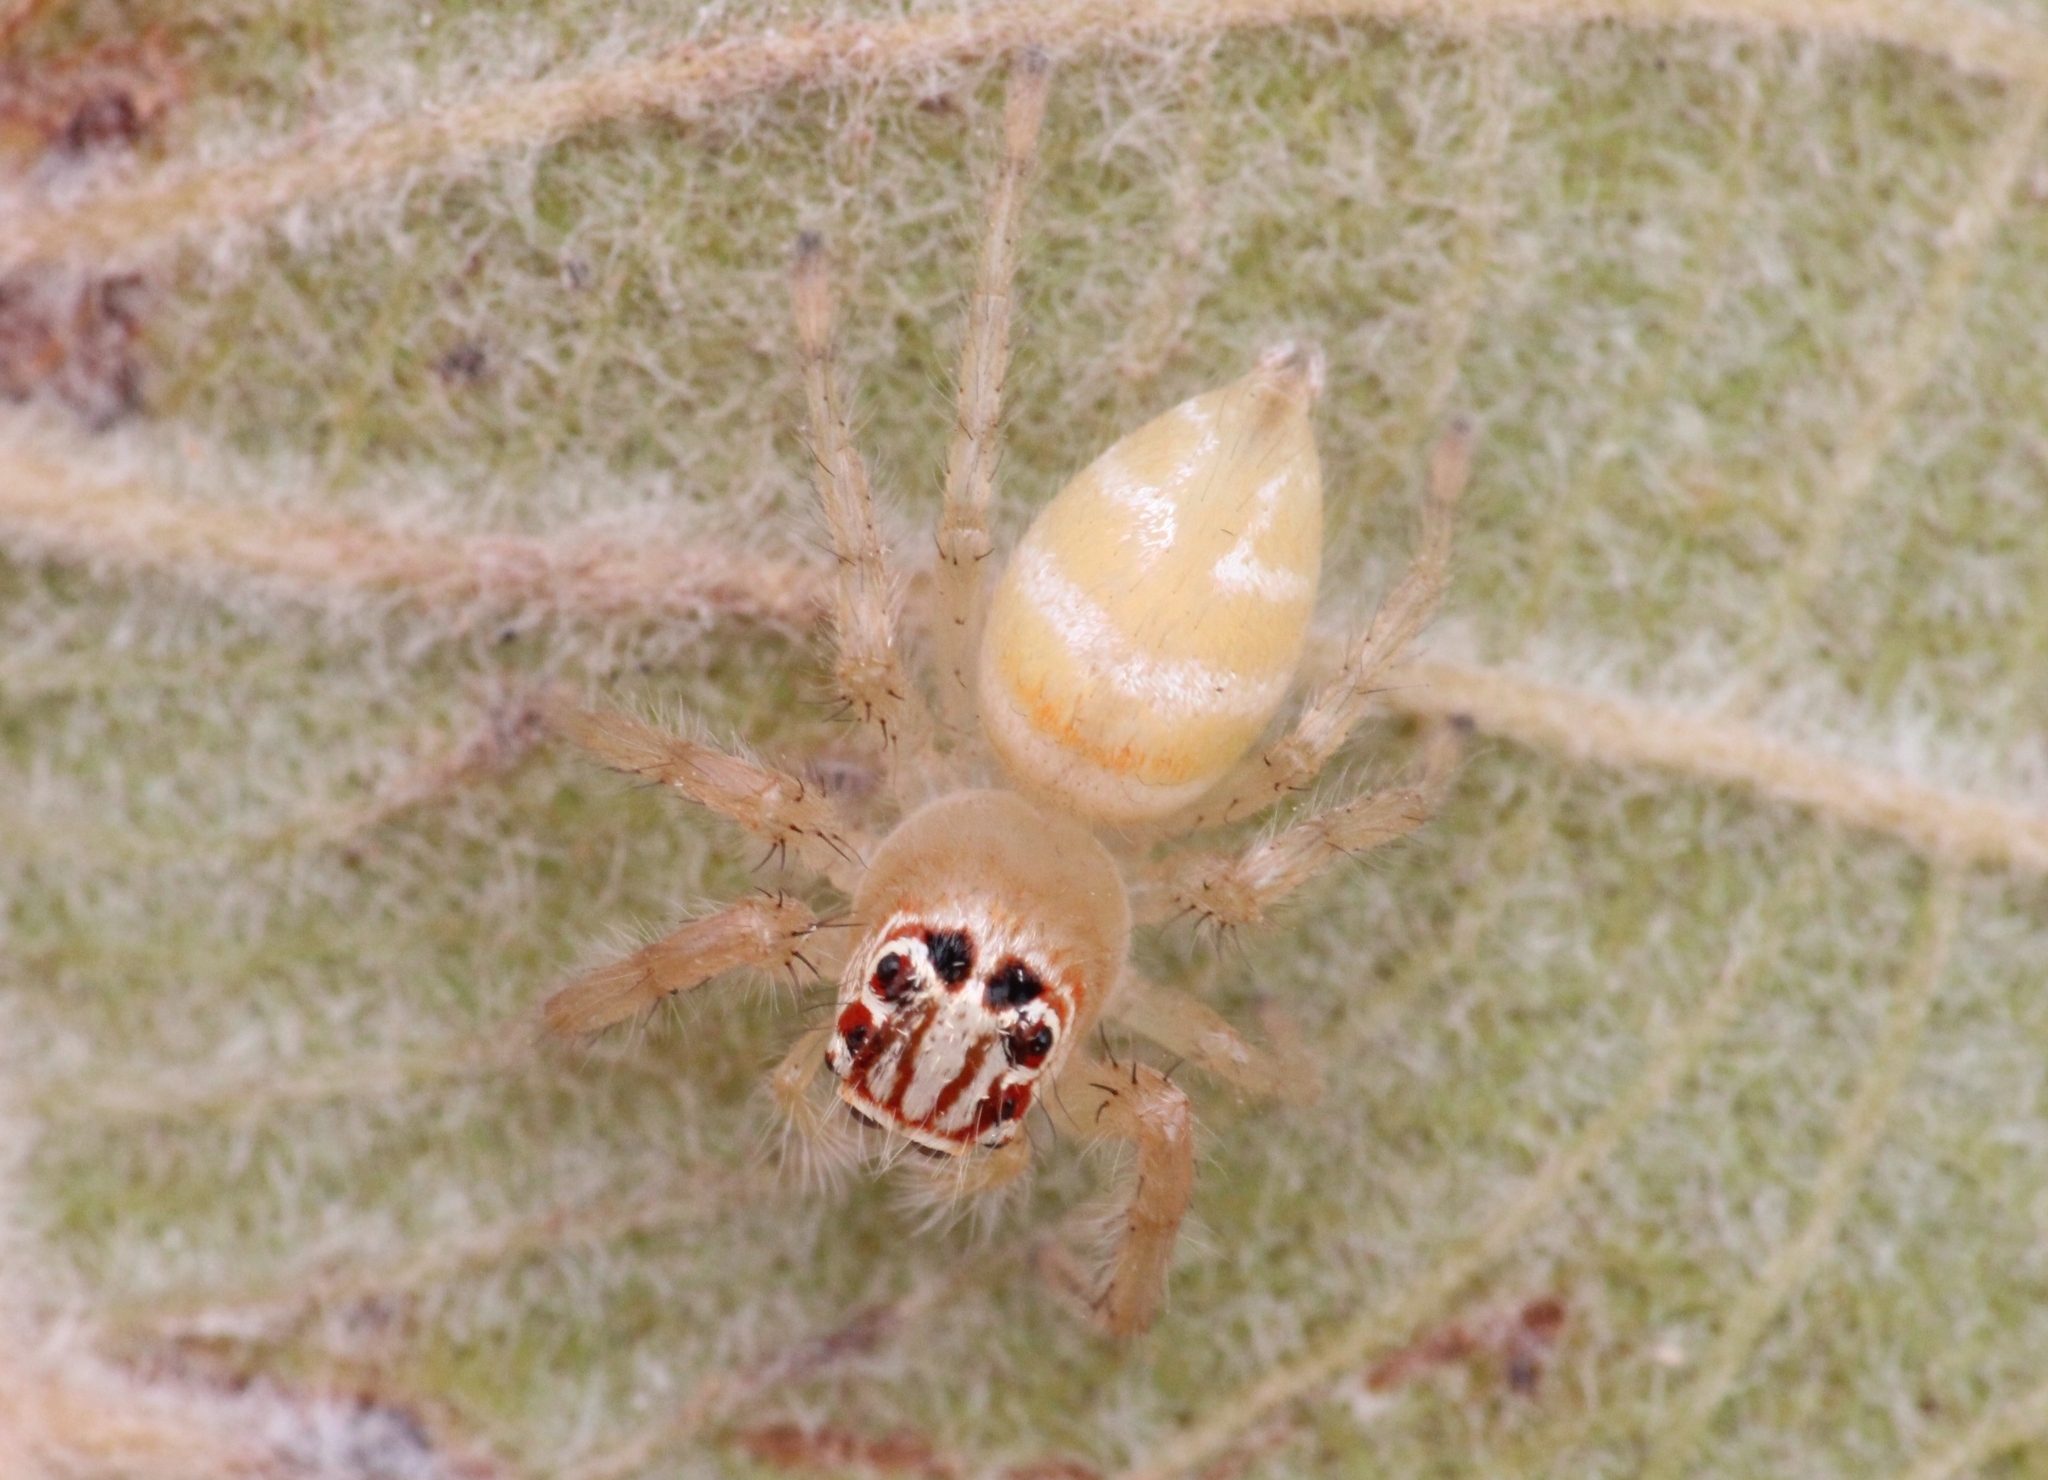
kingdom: Animalia
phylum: Arthropoda
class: Arachnida
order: Araneae
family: Salticidae
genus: Brancus
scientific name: Brancus mustelus
